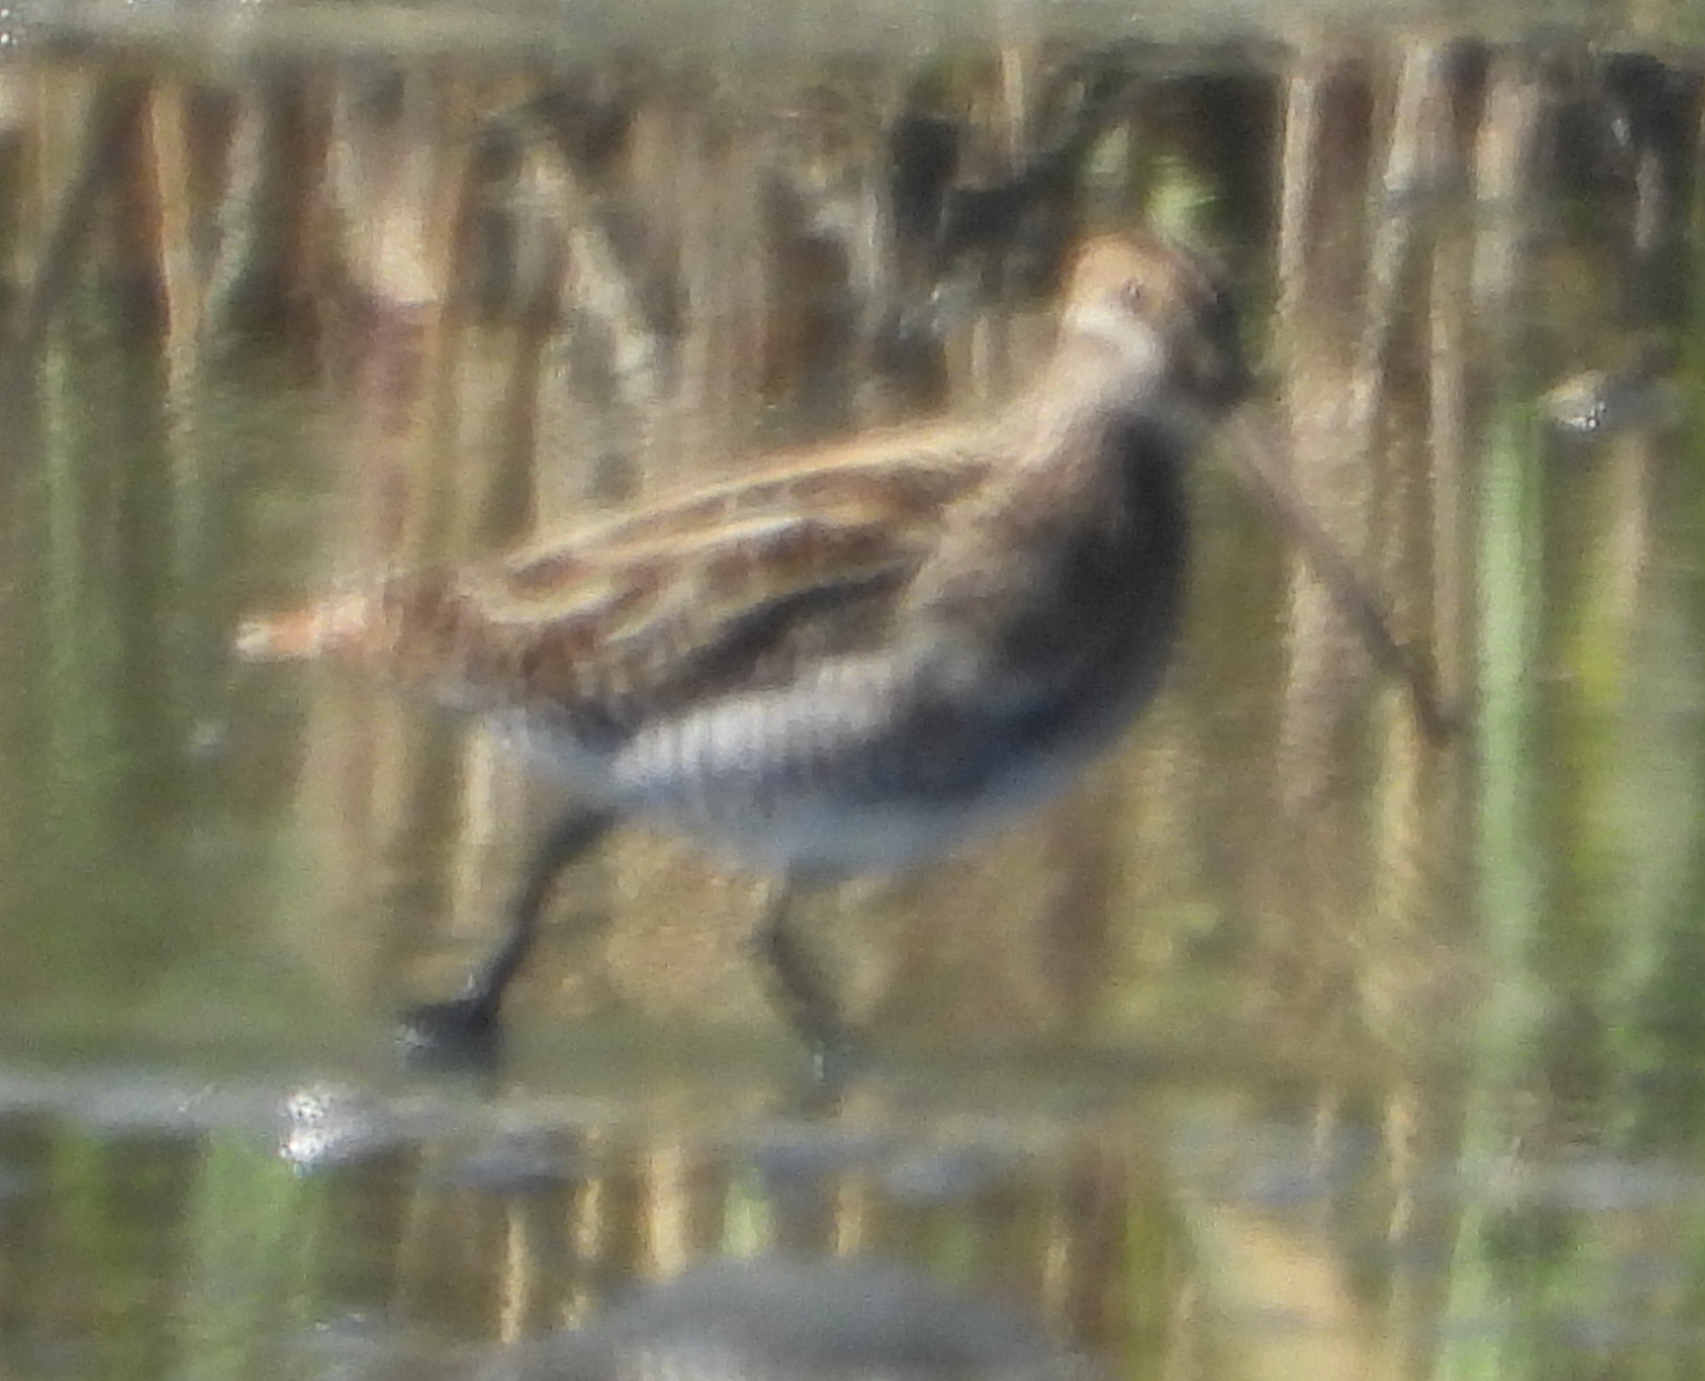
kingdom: Animalia
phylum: Chordata
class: Aves
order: Charadriiformes
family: Scolopacidae
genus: Gallinago
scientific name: Gallinago nigripennis
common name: African snipe
